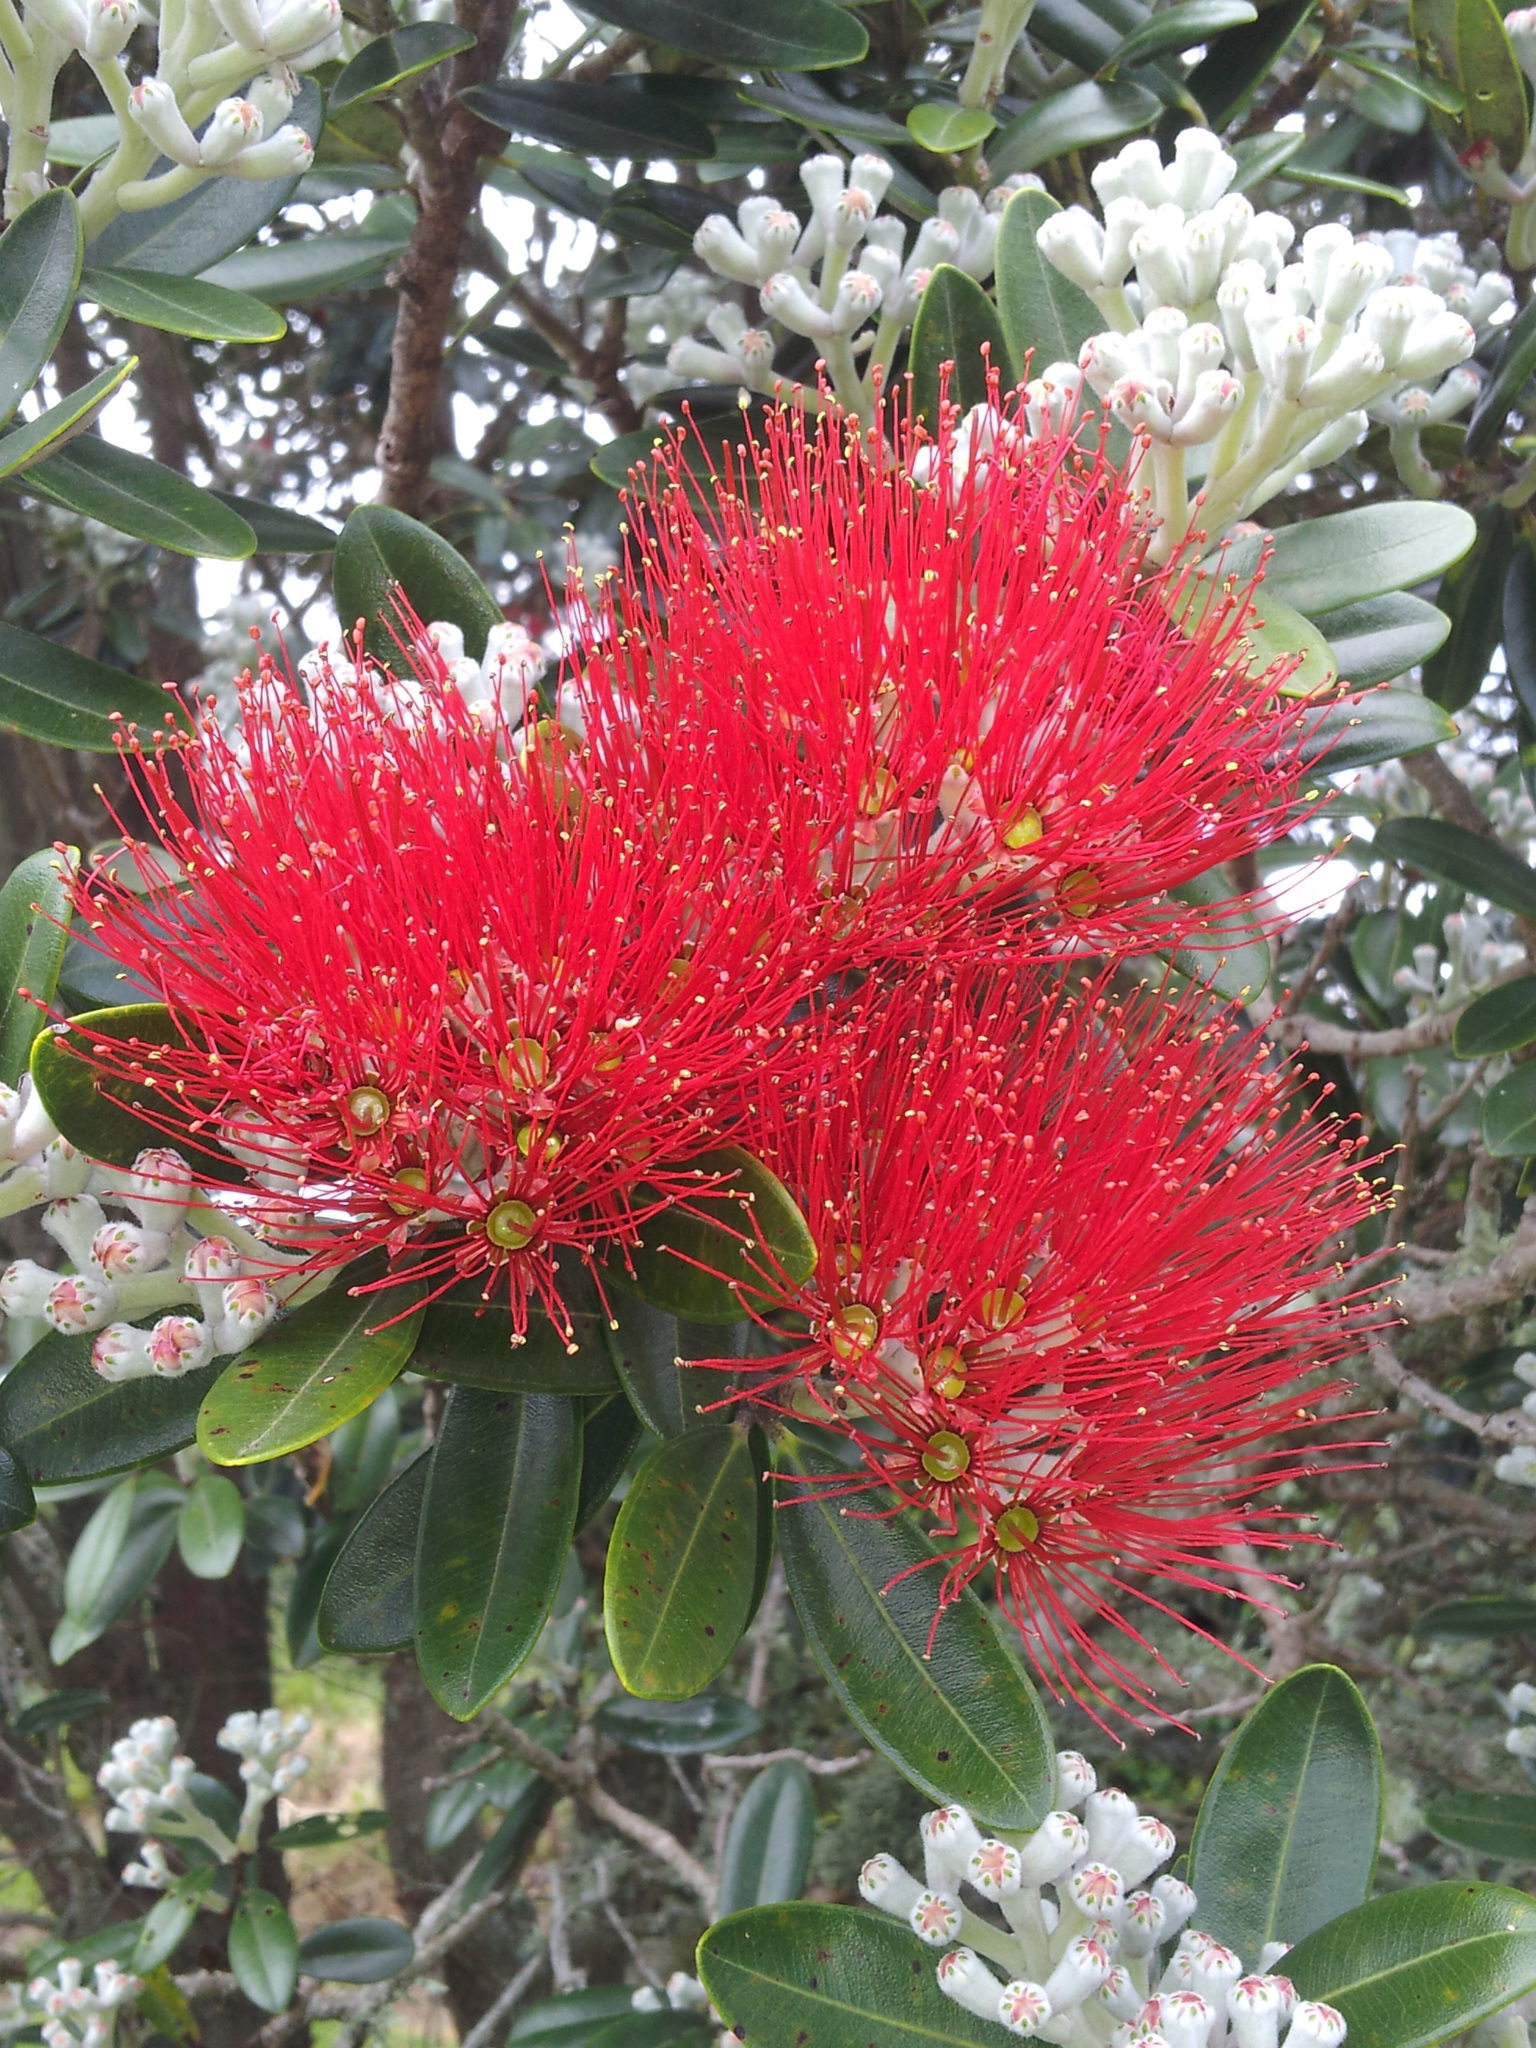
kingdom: Plantae
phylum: Tracheophyta
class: Magnoliopsida
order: Myrtales
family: Myrtaceae
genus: Metrosideros
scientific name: Metrosideros excelsa
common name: New zealand christmastree
